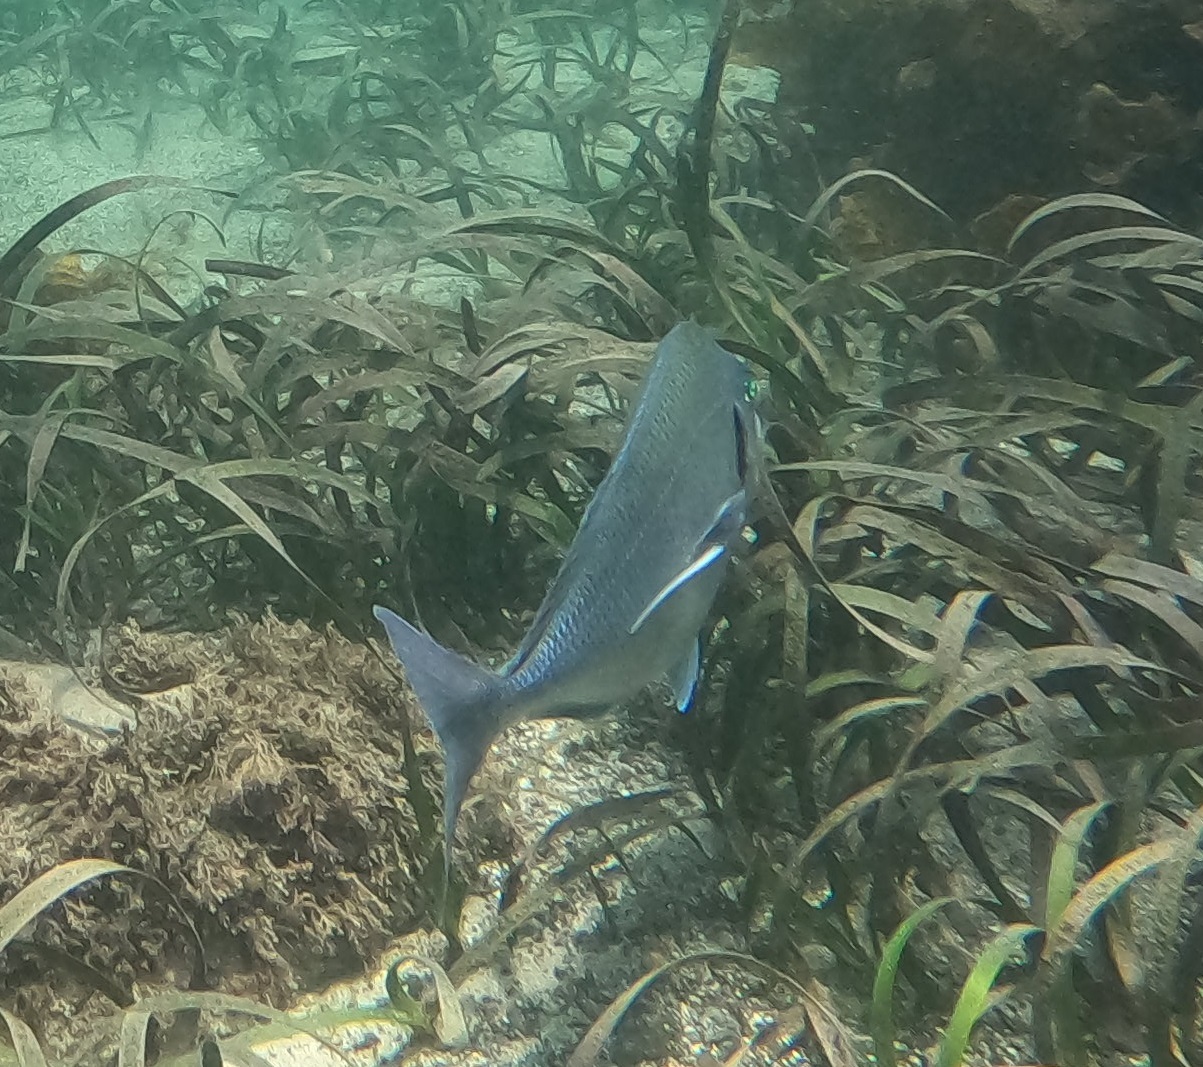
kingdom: Animalia
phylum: Chordata
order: Perciformes
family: Cheilodactylidae
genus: Nemadactylus
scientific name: Nemadactylus douglasii
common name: Porae
